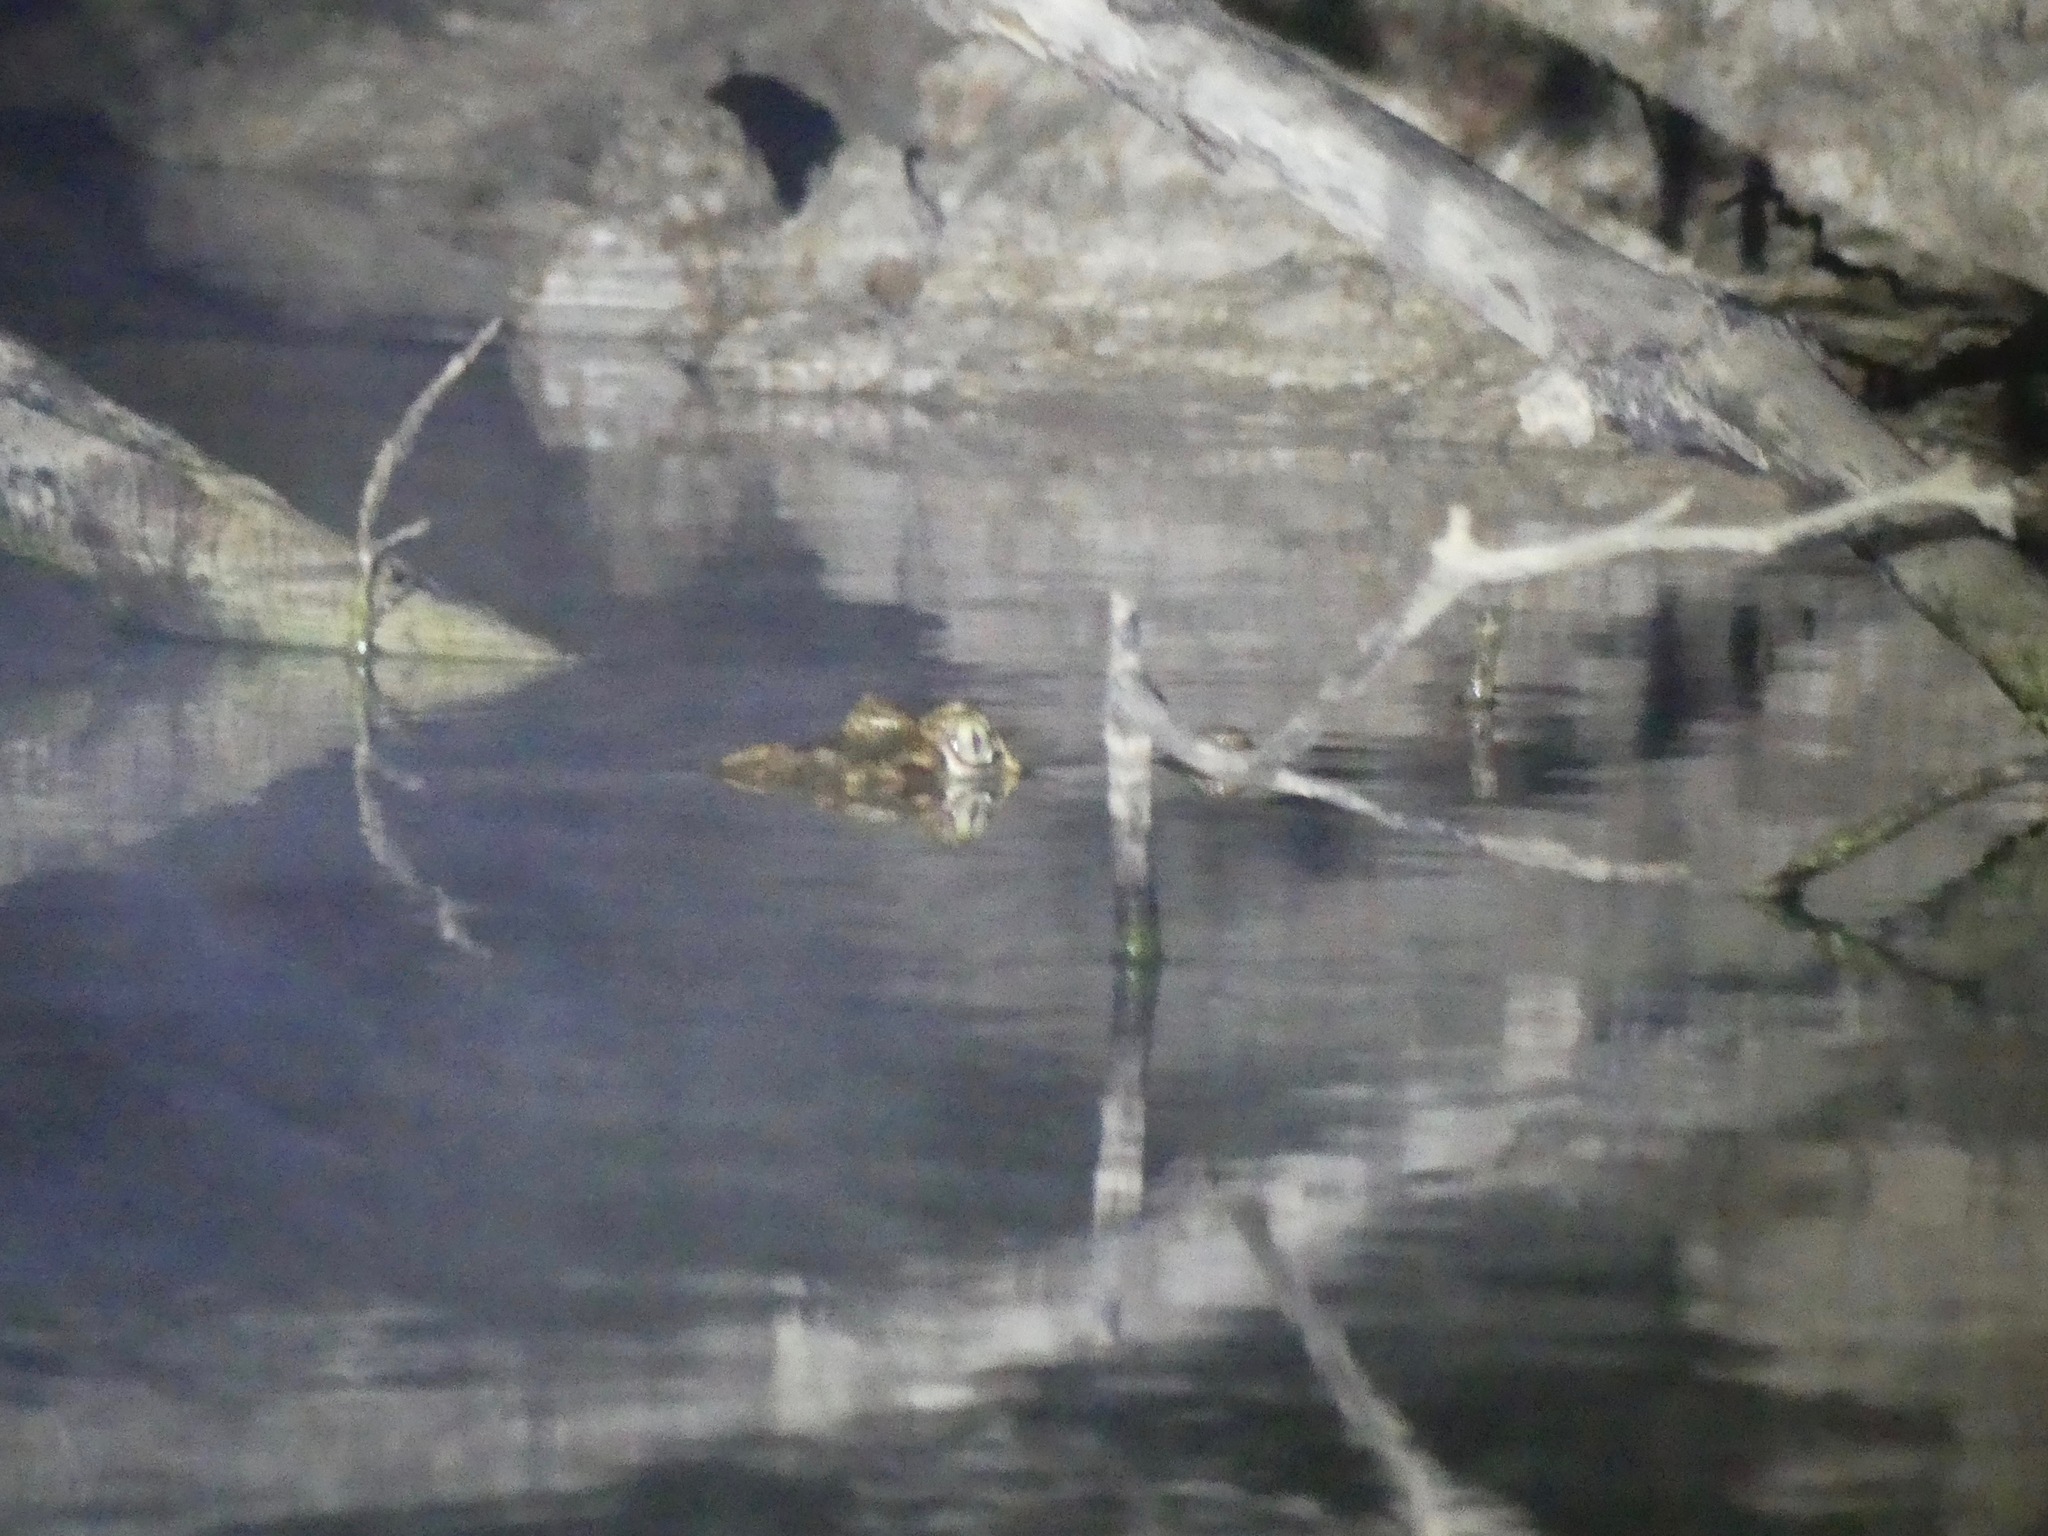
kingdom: Animalia
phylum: Chordata
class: Crocodylia
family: Alligatoridae
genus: Caiman
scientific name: Caiman crocodilus
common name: Common caiman
